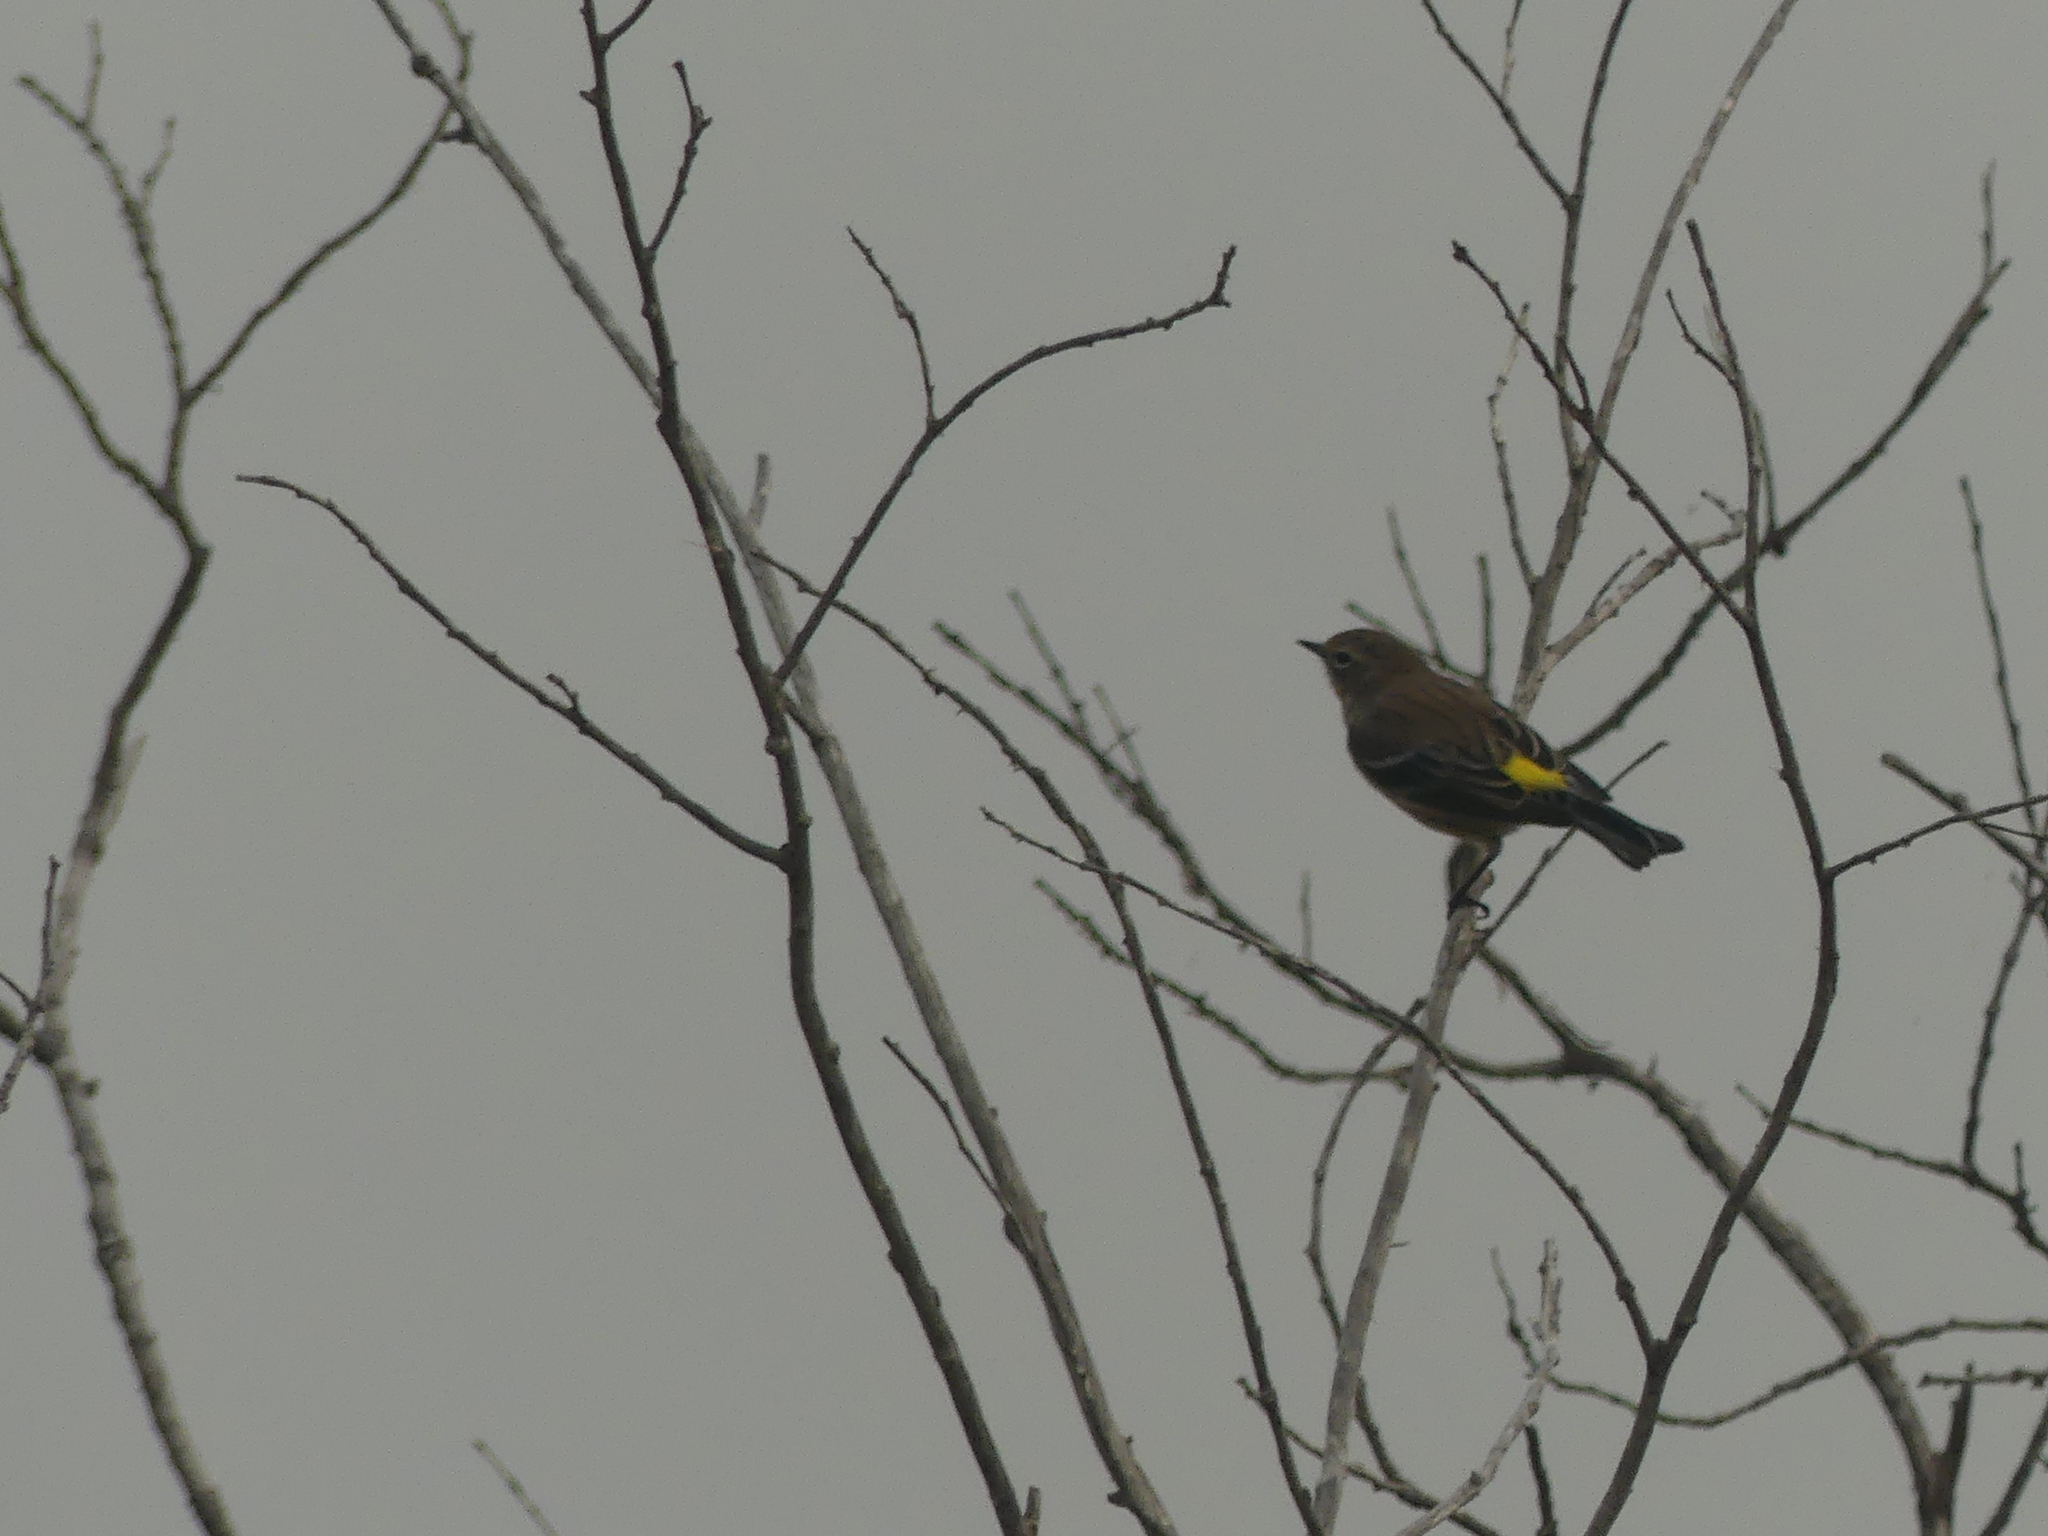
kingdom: Animalia
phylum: Chordata
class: Aves
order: Passeriformes
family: Parulidae
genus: Setophaga
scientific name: Setophaga coronata
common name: Myrtle warbler
